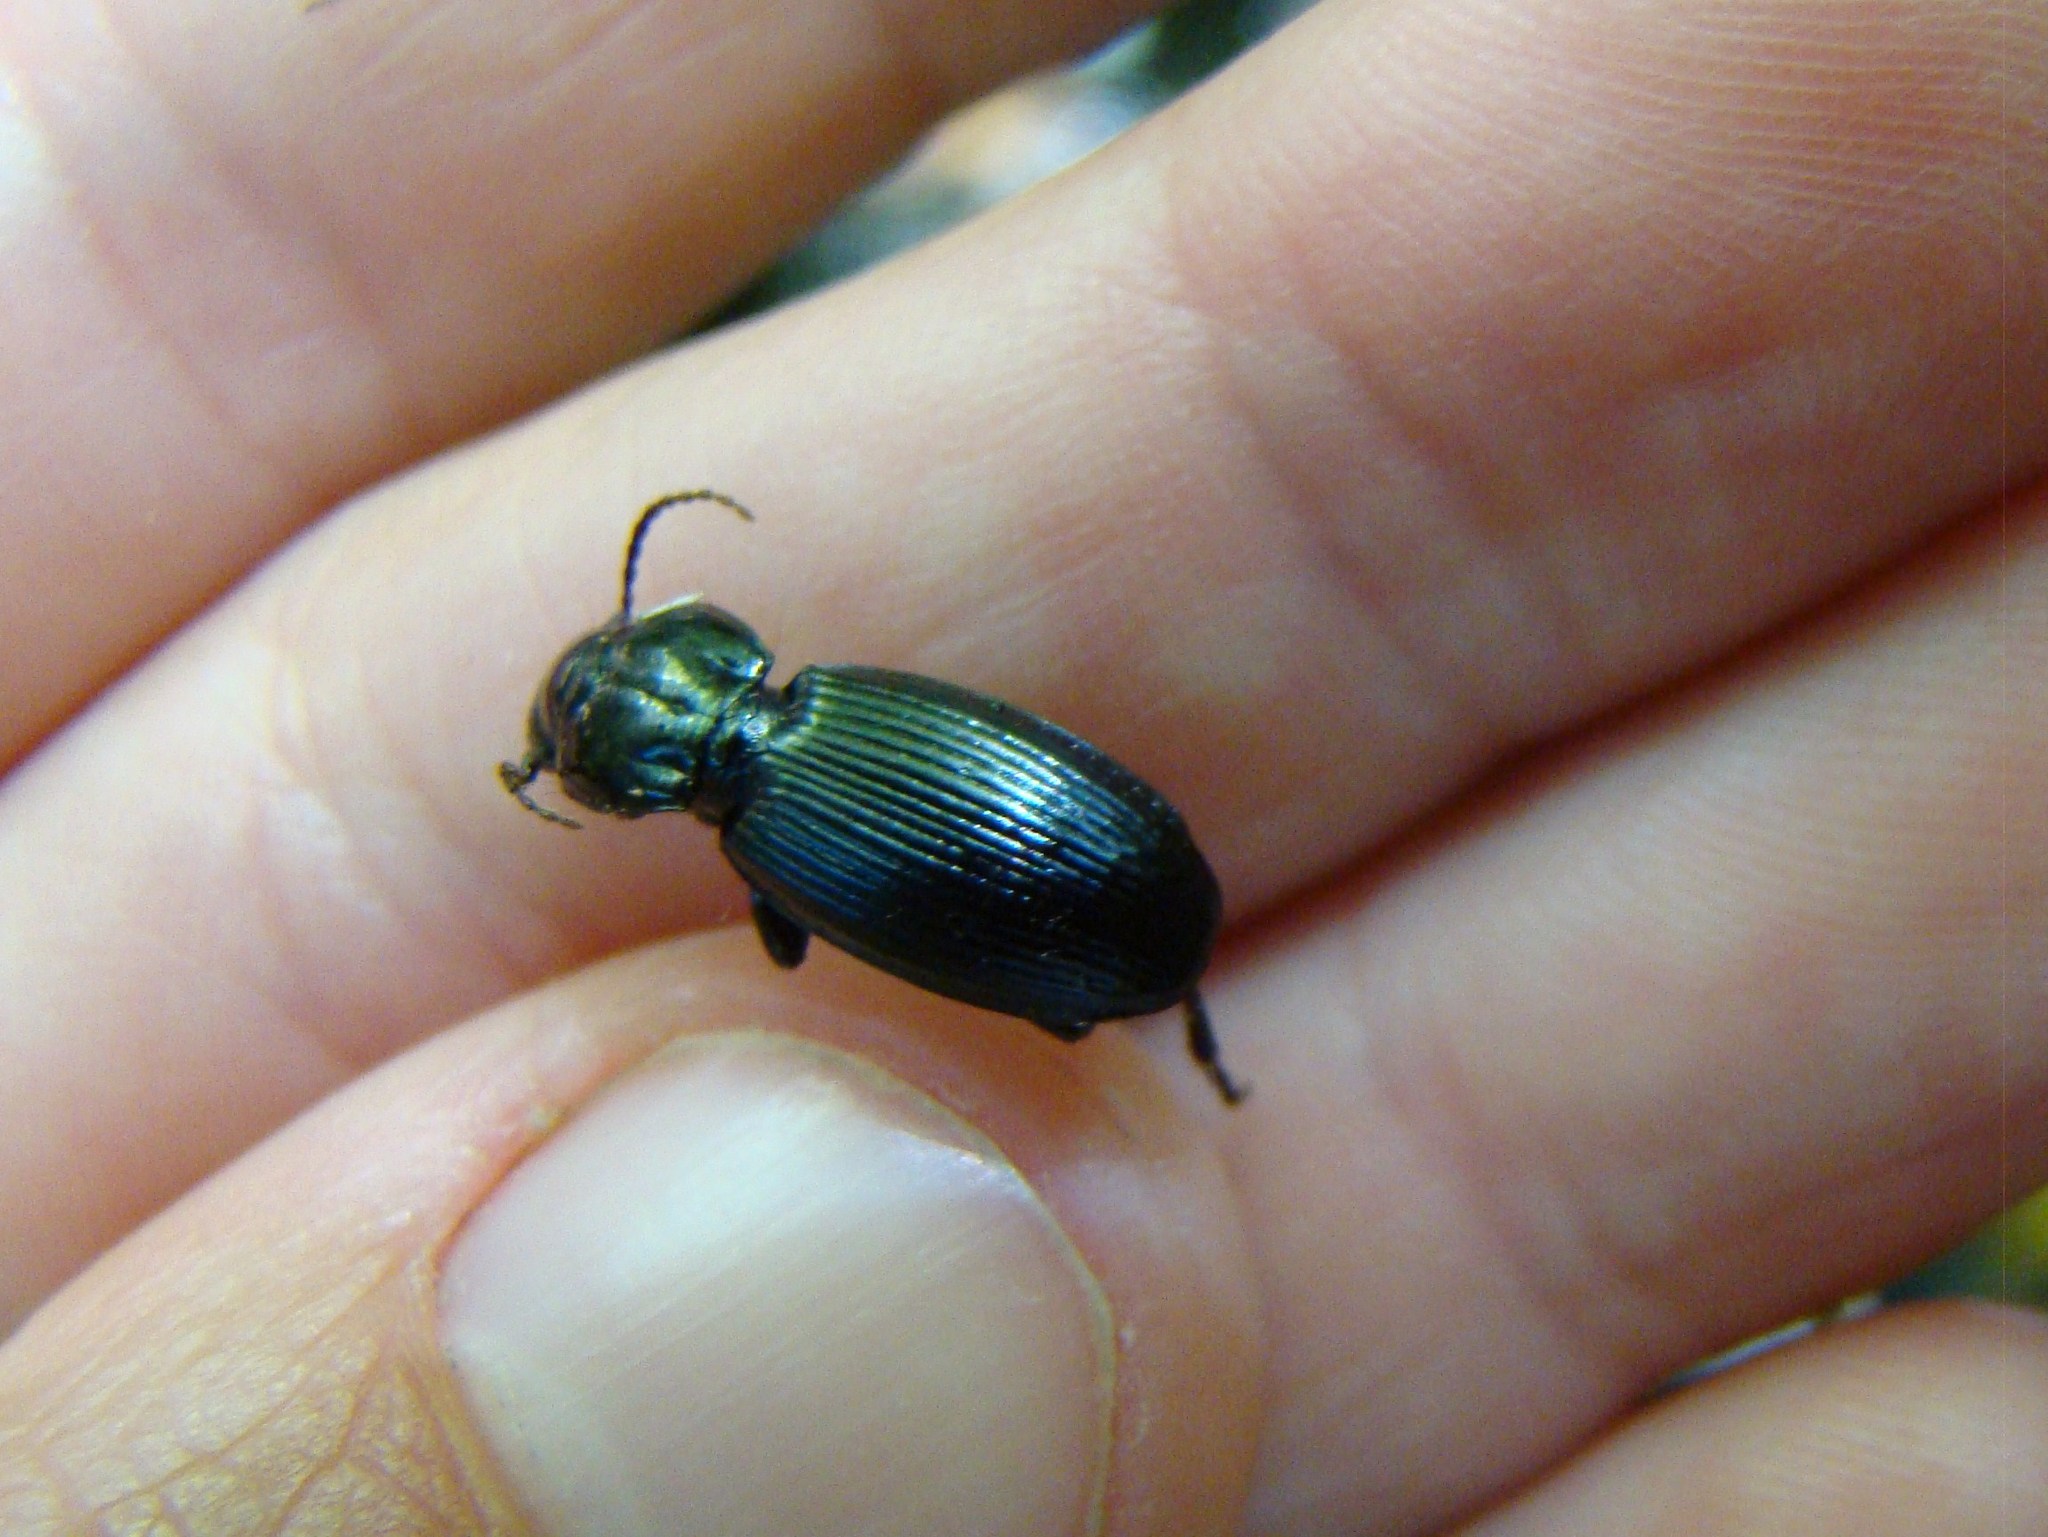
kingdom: Animalia
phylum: Arthropoda
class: Insecta
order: Coleoptera
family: Carabidae
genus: Megadromus
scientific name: Megadromus capito
